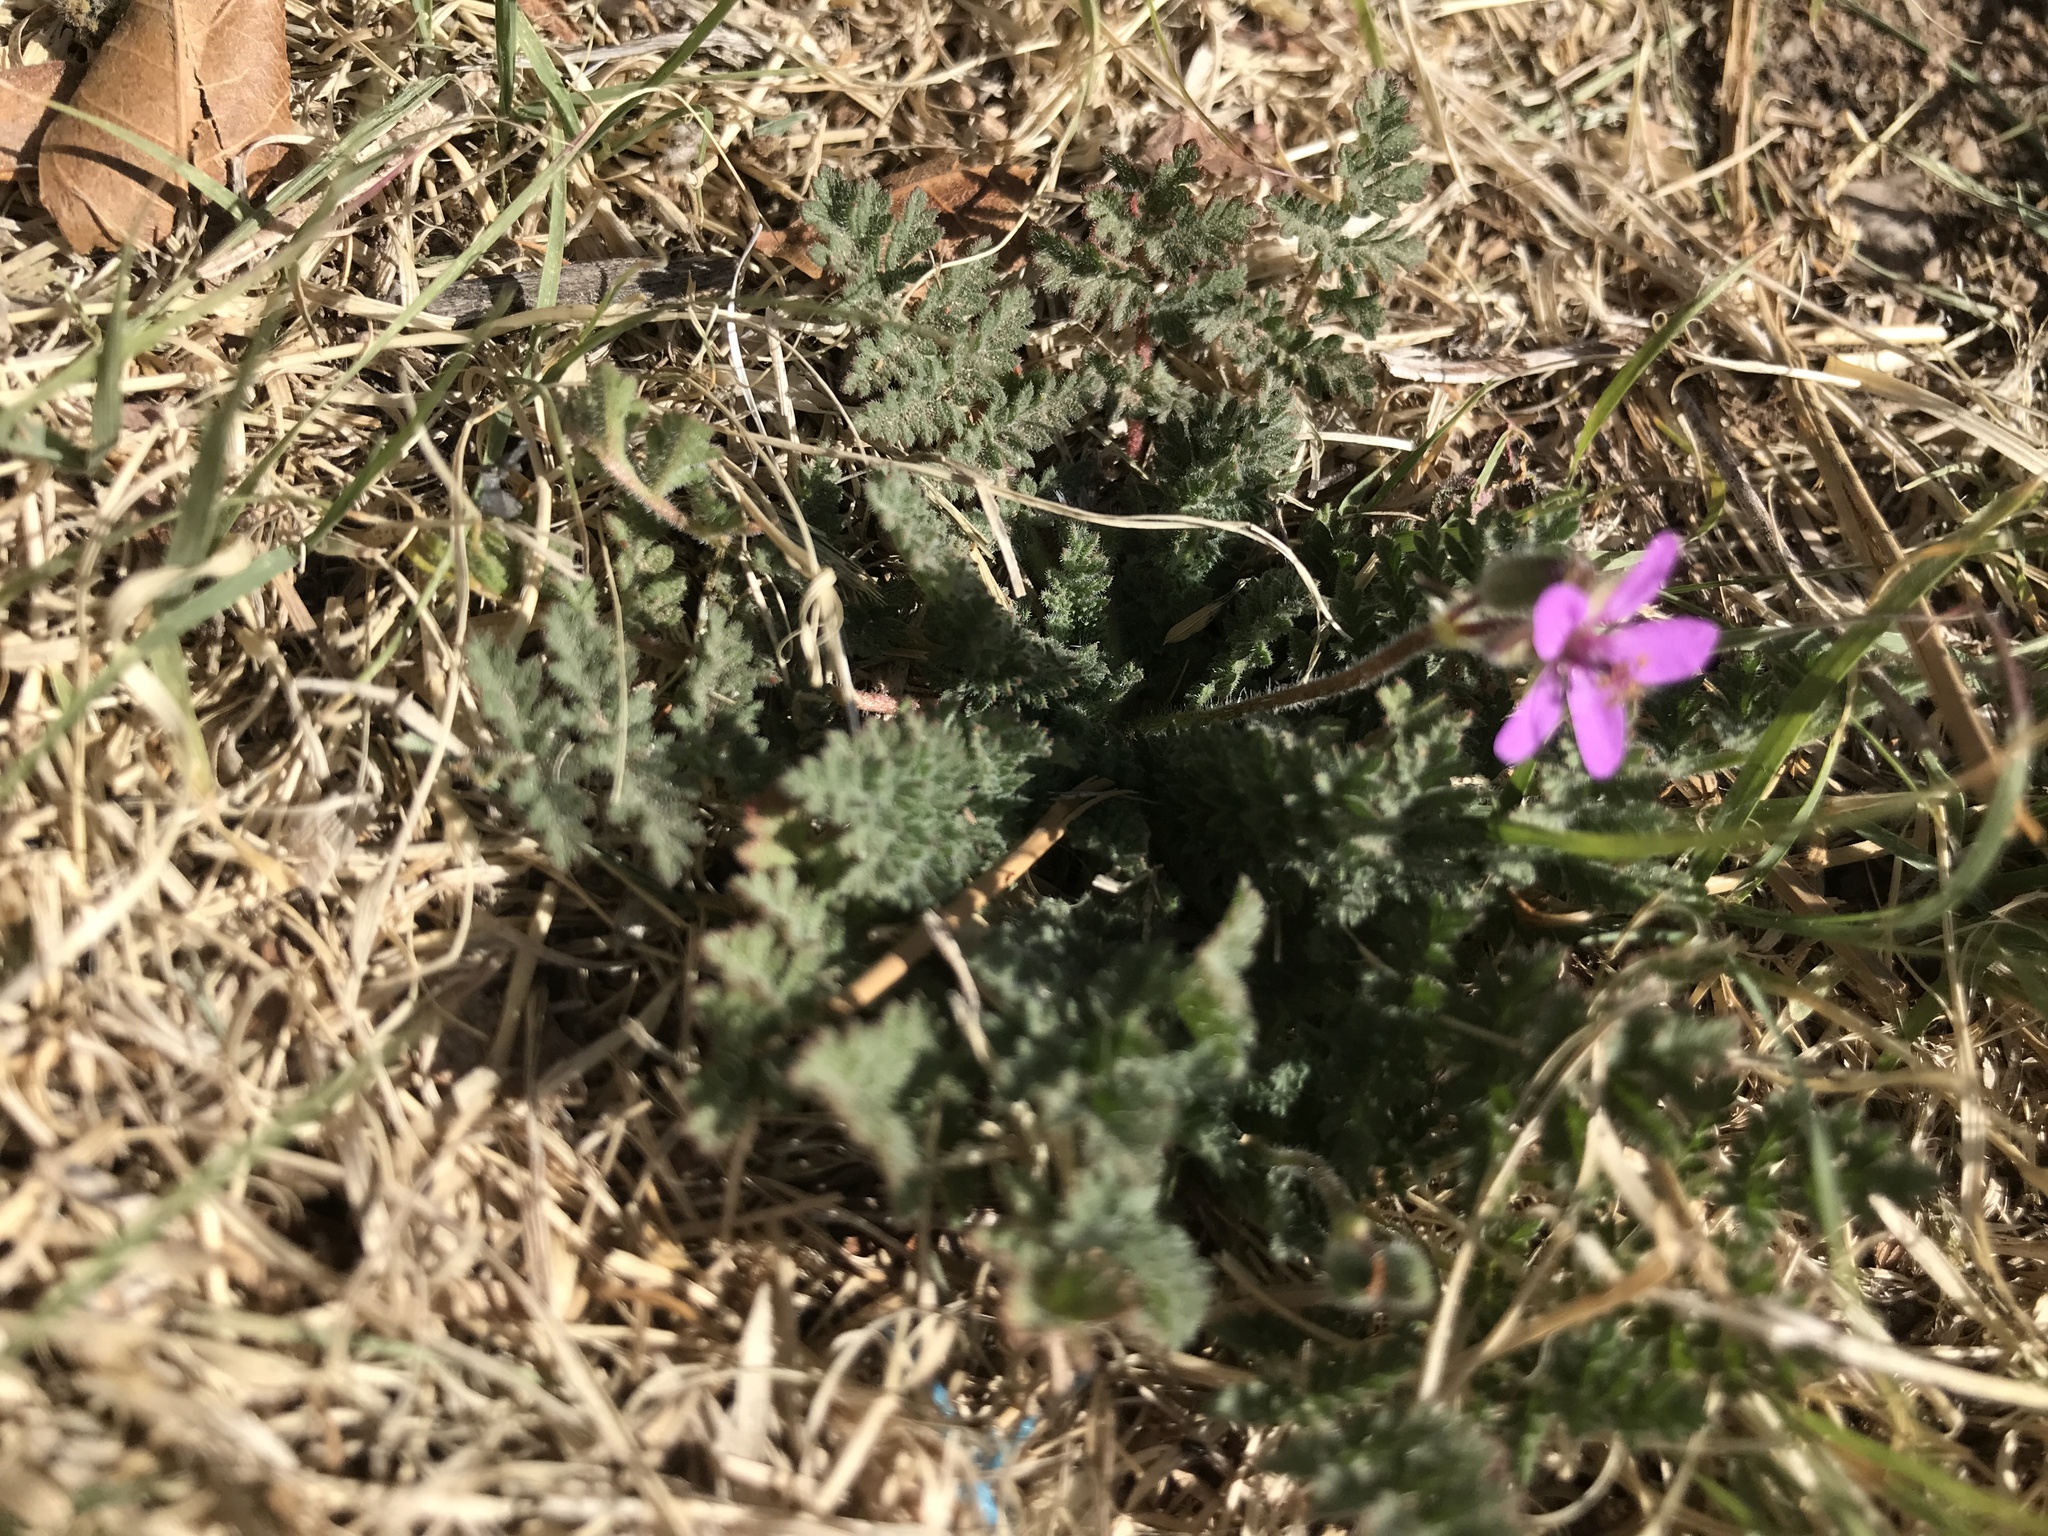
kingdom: Plantae
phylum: Tracheophyta
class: Magnoliopsida
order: Geraniales
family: Geraniaceae
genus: Erodium
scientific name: Erodium cicutarium
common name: Common stork's-bill
